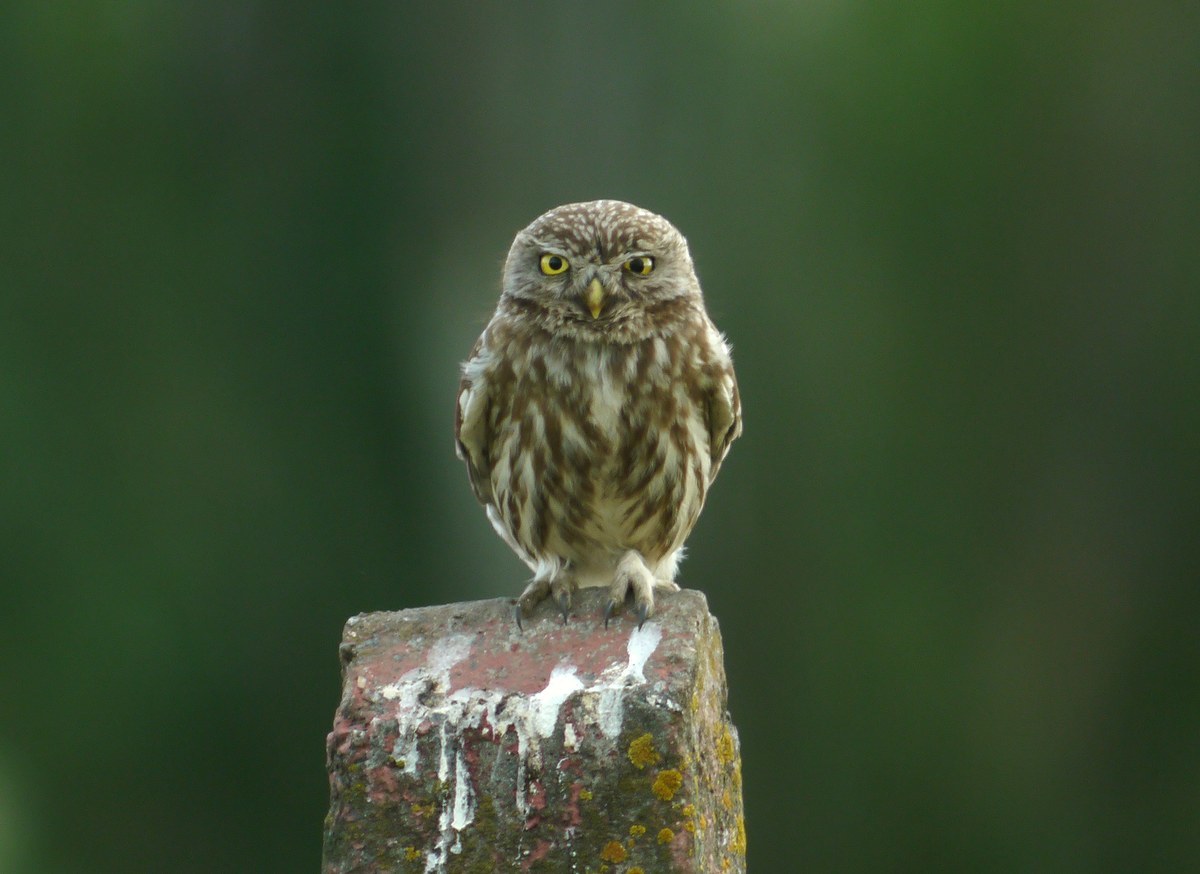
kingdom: Animalia
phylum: Chordata
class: Aves
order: Strigiformes
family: Strigidae
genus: Athene
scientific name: Athene noctua
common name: Little owl
